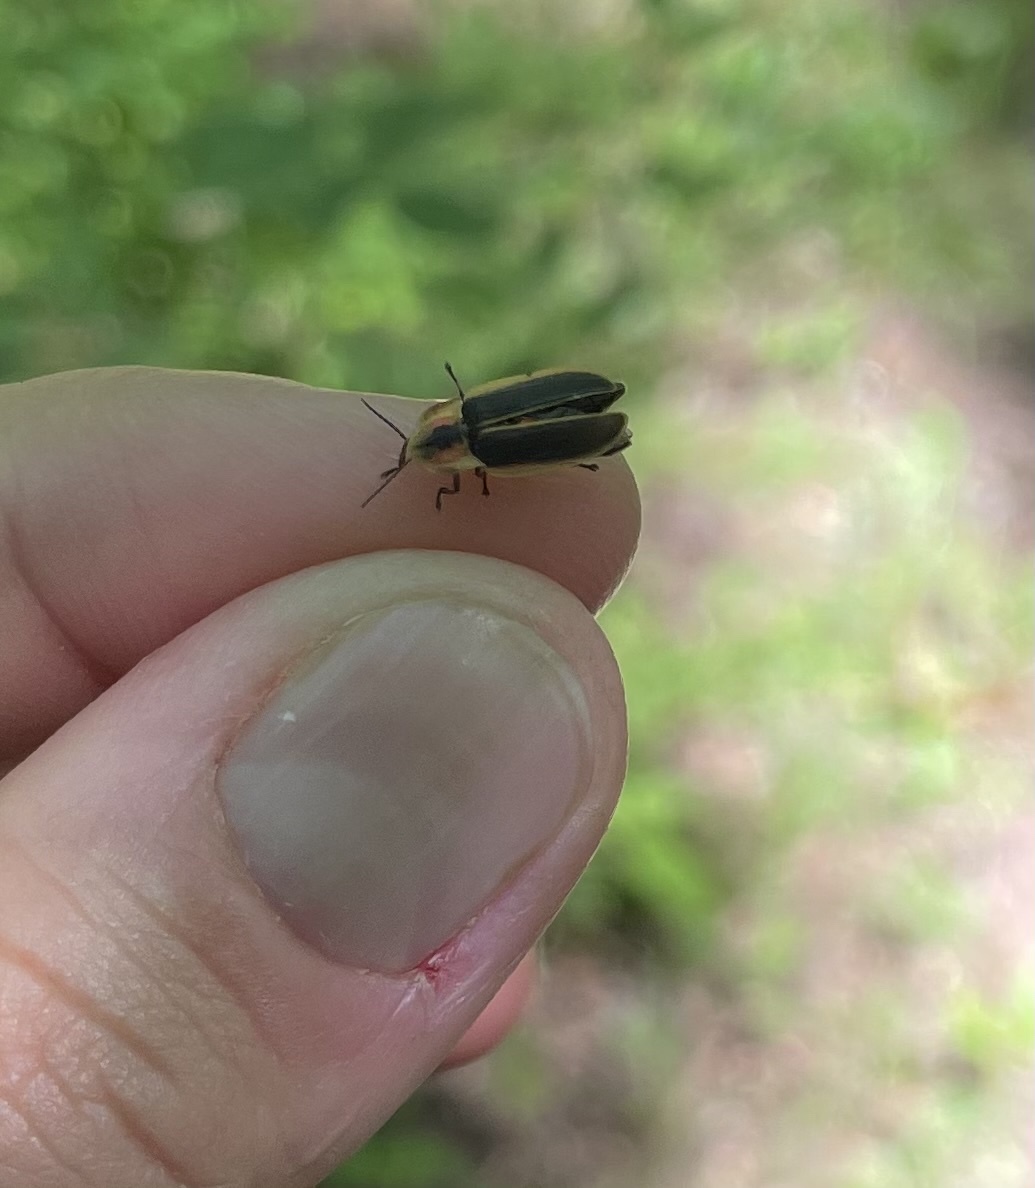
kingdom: Animalia
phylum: Arthropoda
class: Insecta
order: Coleoptera
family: Lampyridae
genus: Pyractomena
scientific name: Pyractomena angulata
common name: Candle firefly
